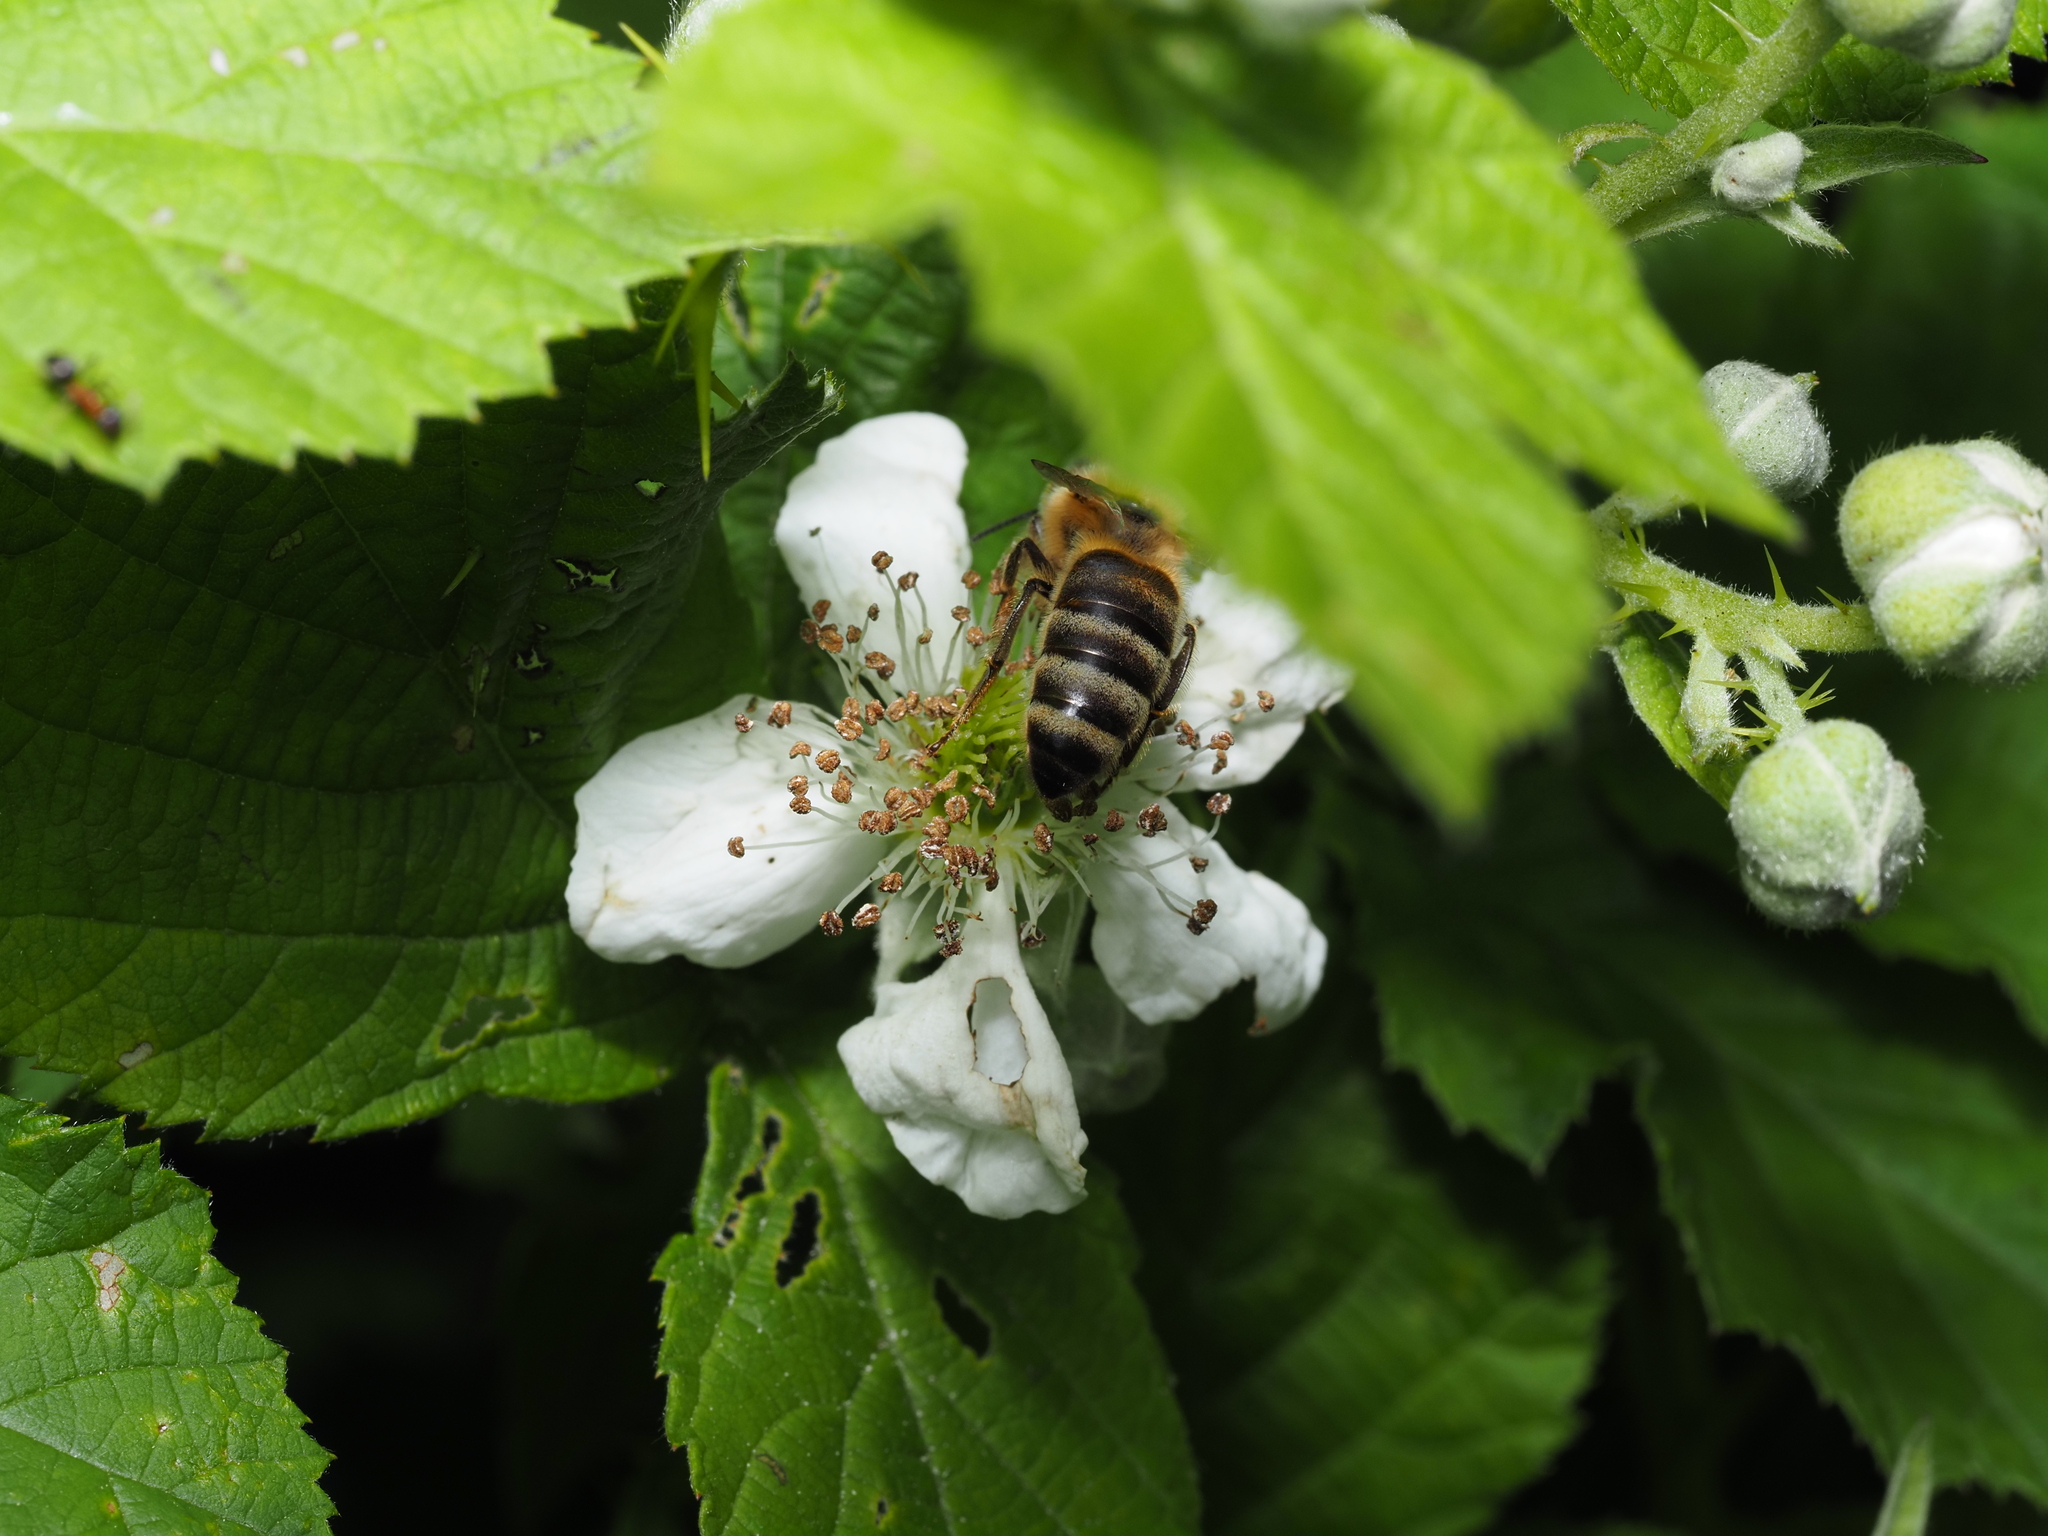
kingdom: Animalia
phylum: Arthropoda
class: Insecta
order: Hymenoptera
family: Apidae
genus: Apis
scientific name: Apis mellifera
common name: Honey bee
